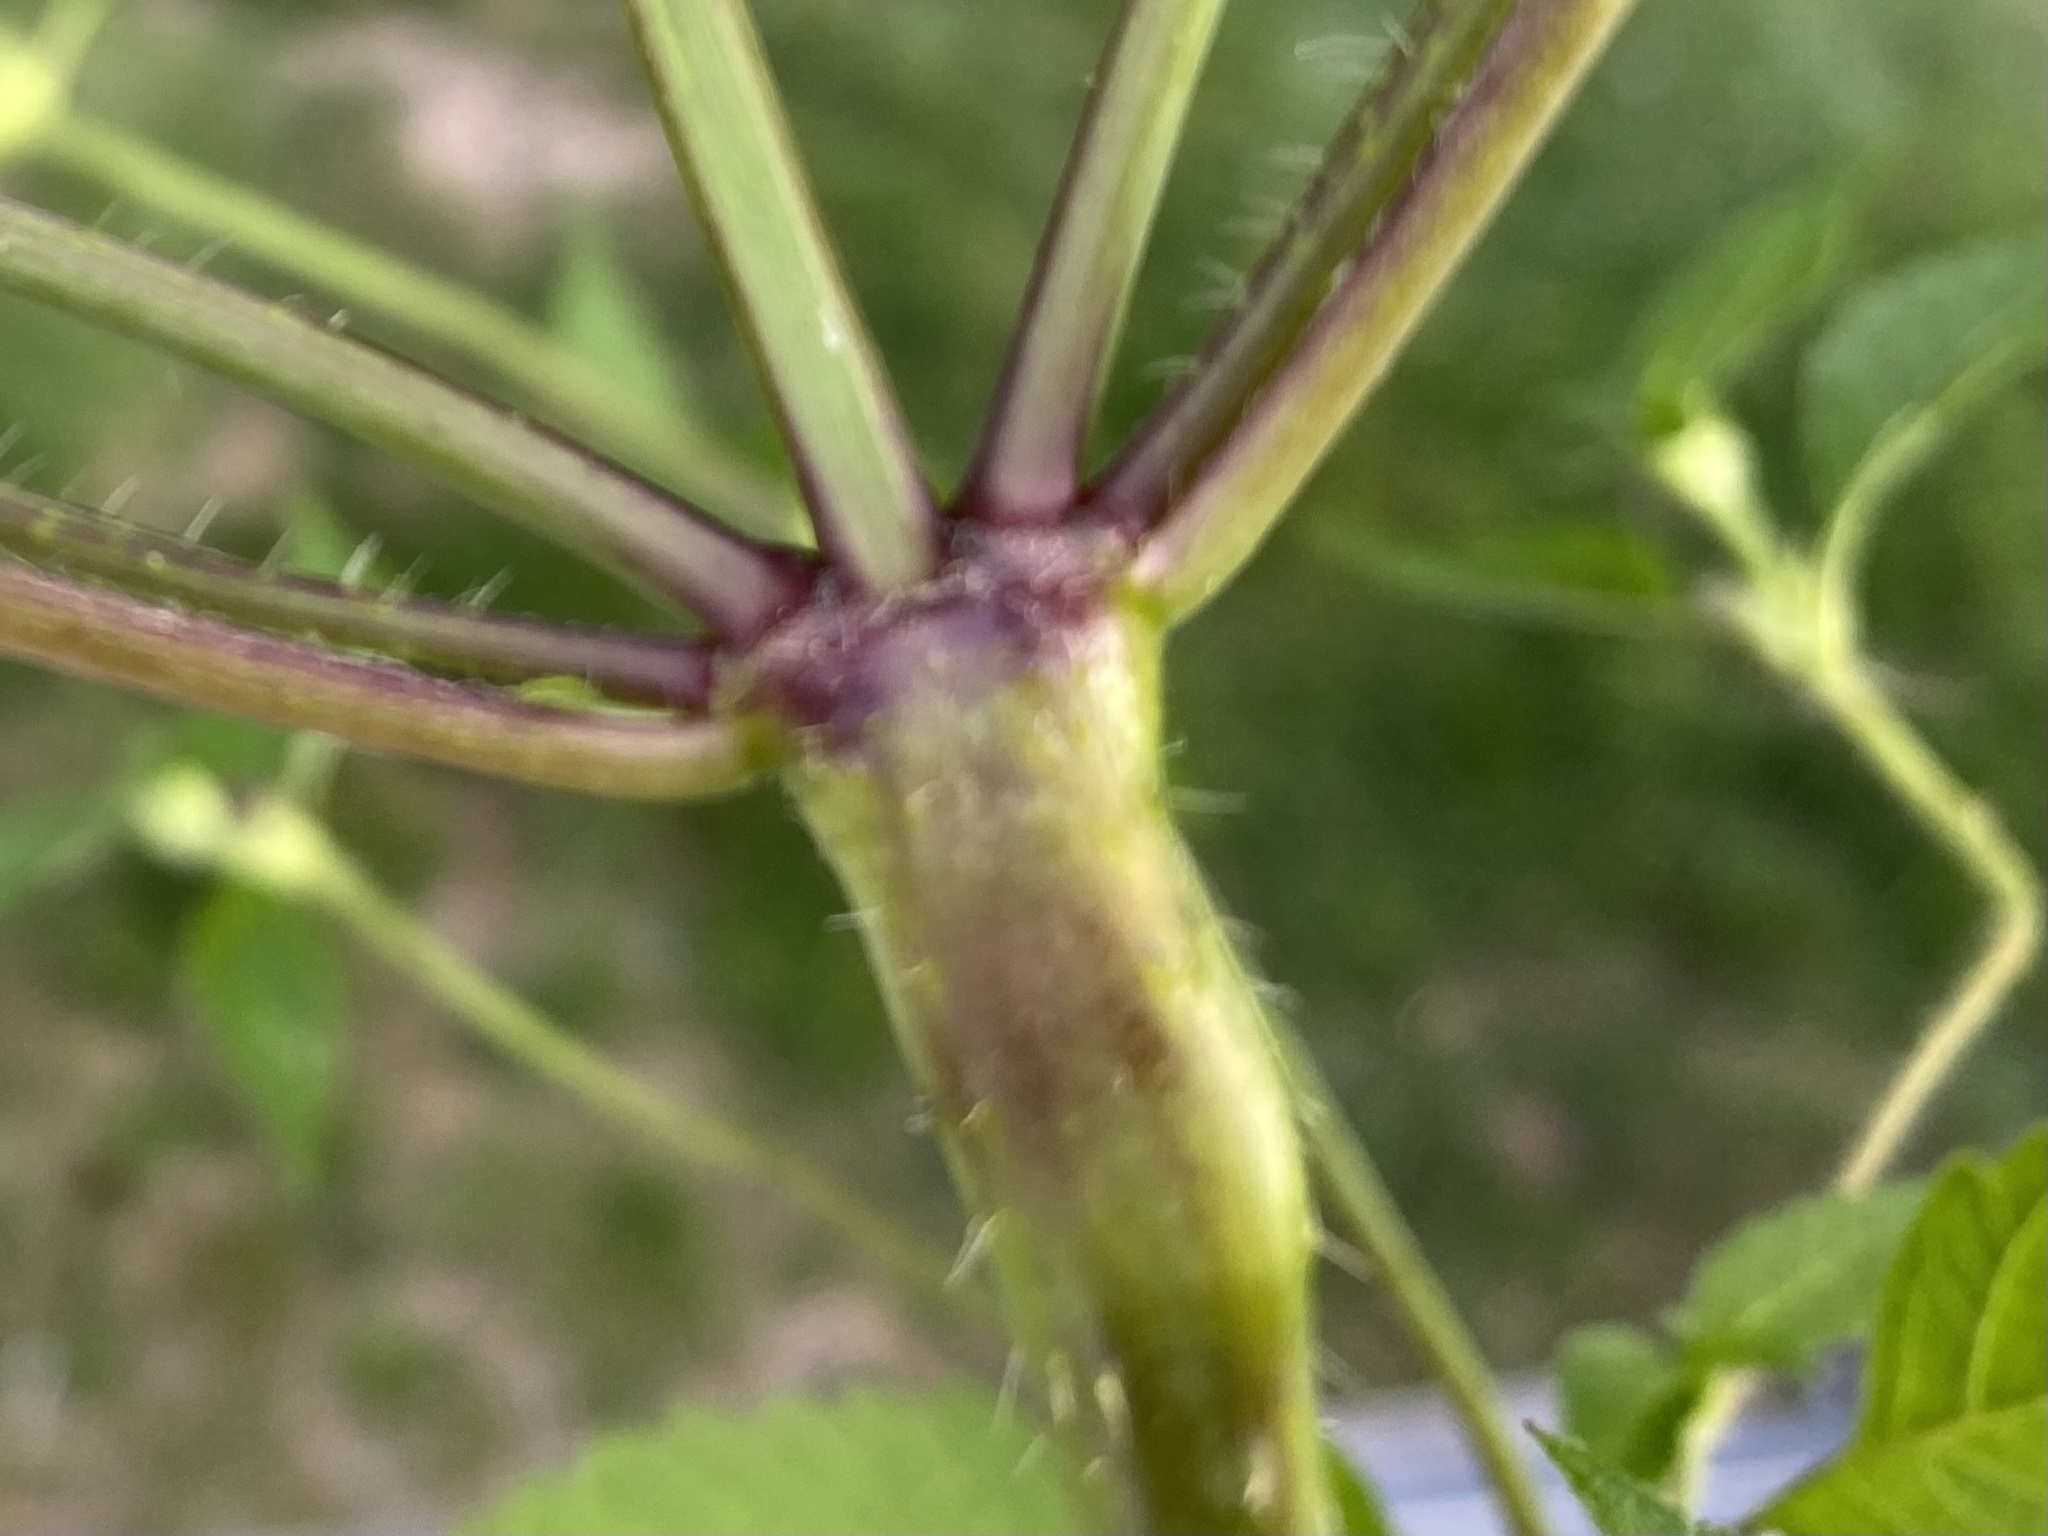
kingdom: Plantae
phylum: Tracheophyta
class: Magnoliopsida
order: Lamiales
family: Lamiaceae
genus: Galeopsis
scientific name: Galeopsis tetrahit
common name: Common hemp-nettle
